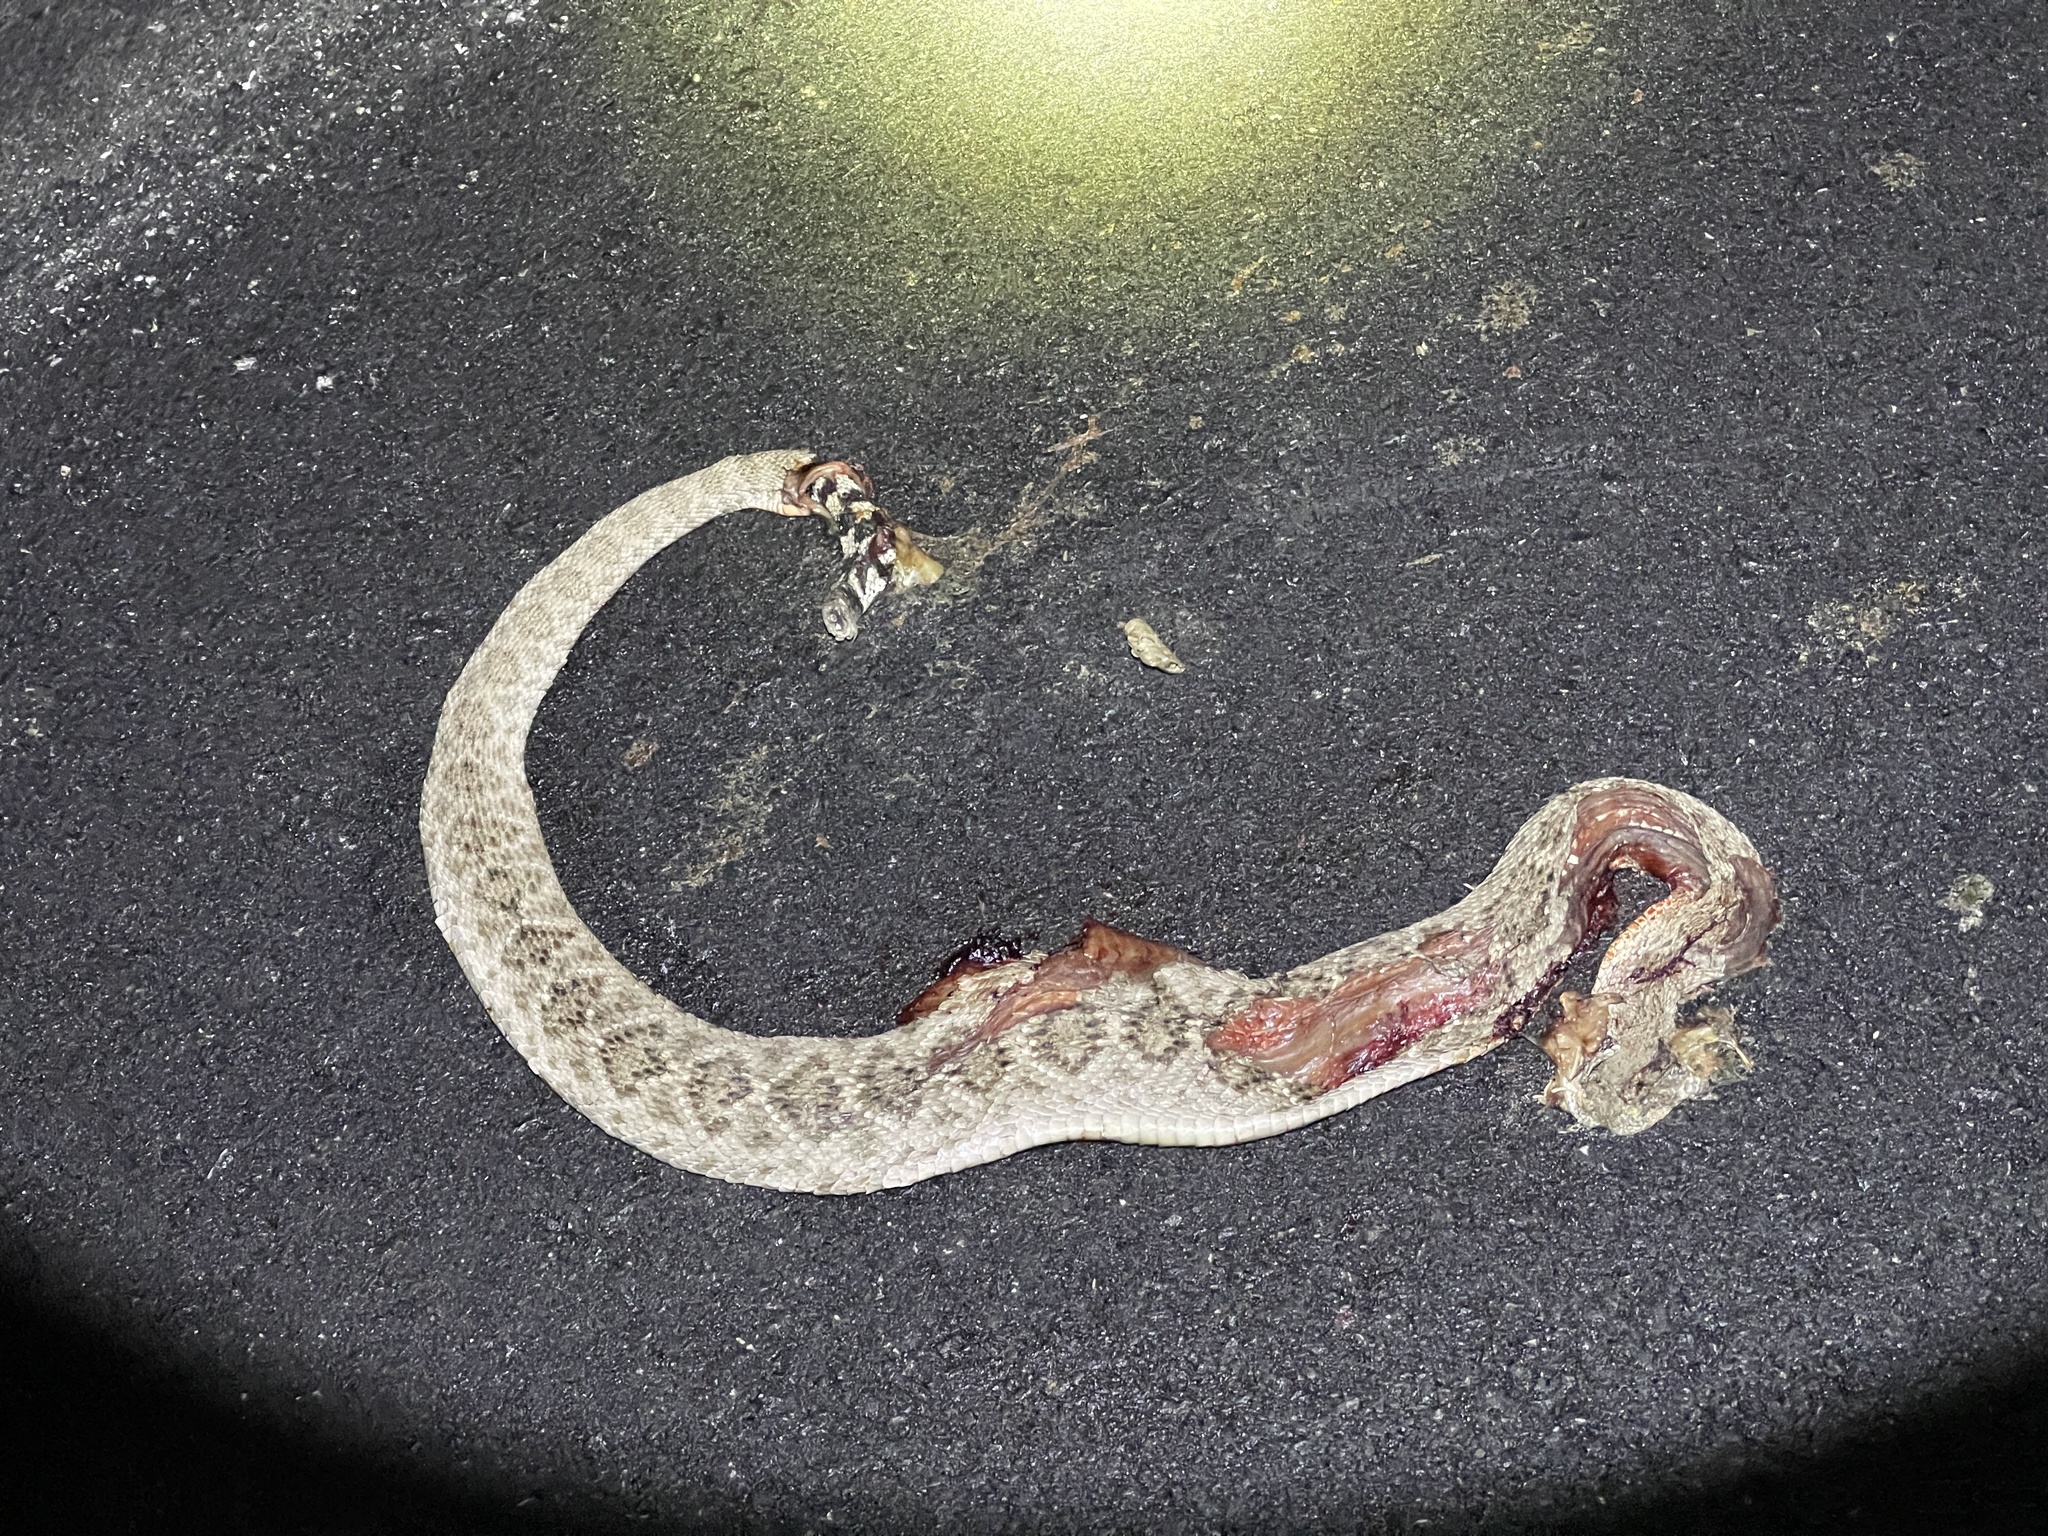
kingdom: Animalia
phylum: Chordata
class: Squamata
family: Viperidae
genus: Crotalus
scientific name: Crotalus atrox
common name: Western diamond-backed rattlesnake
